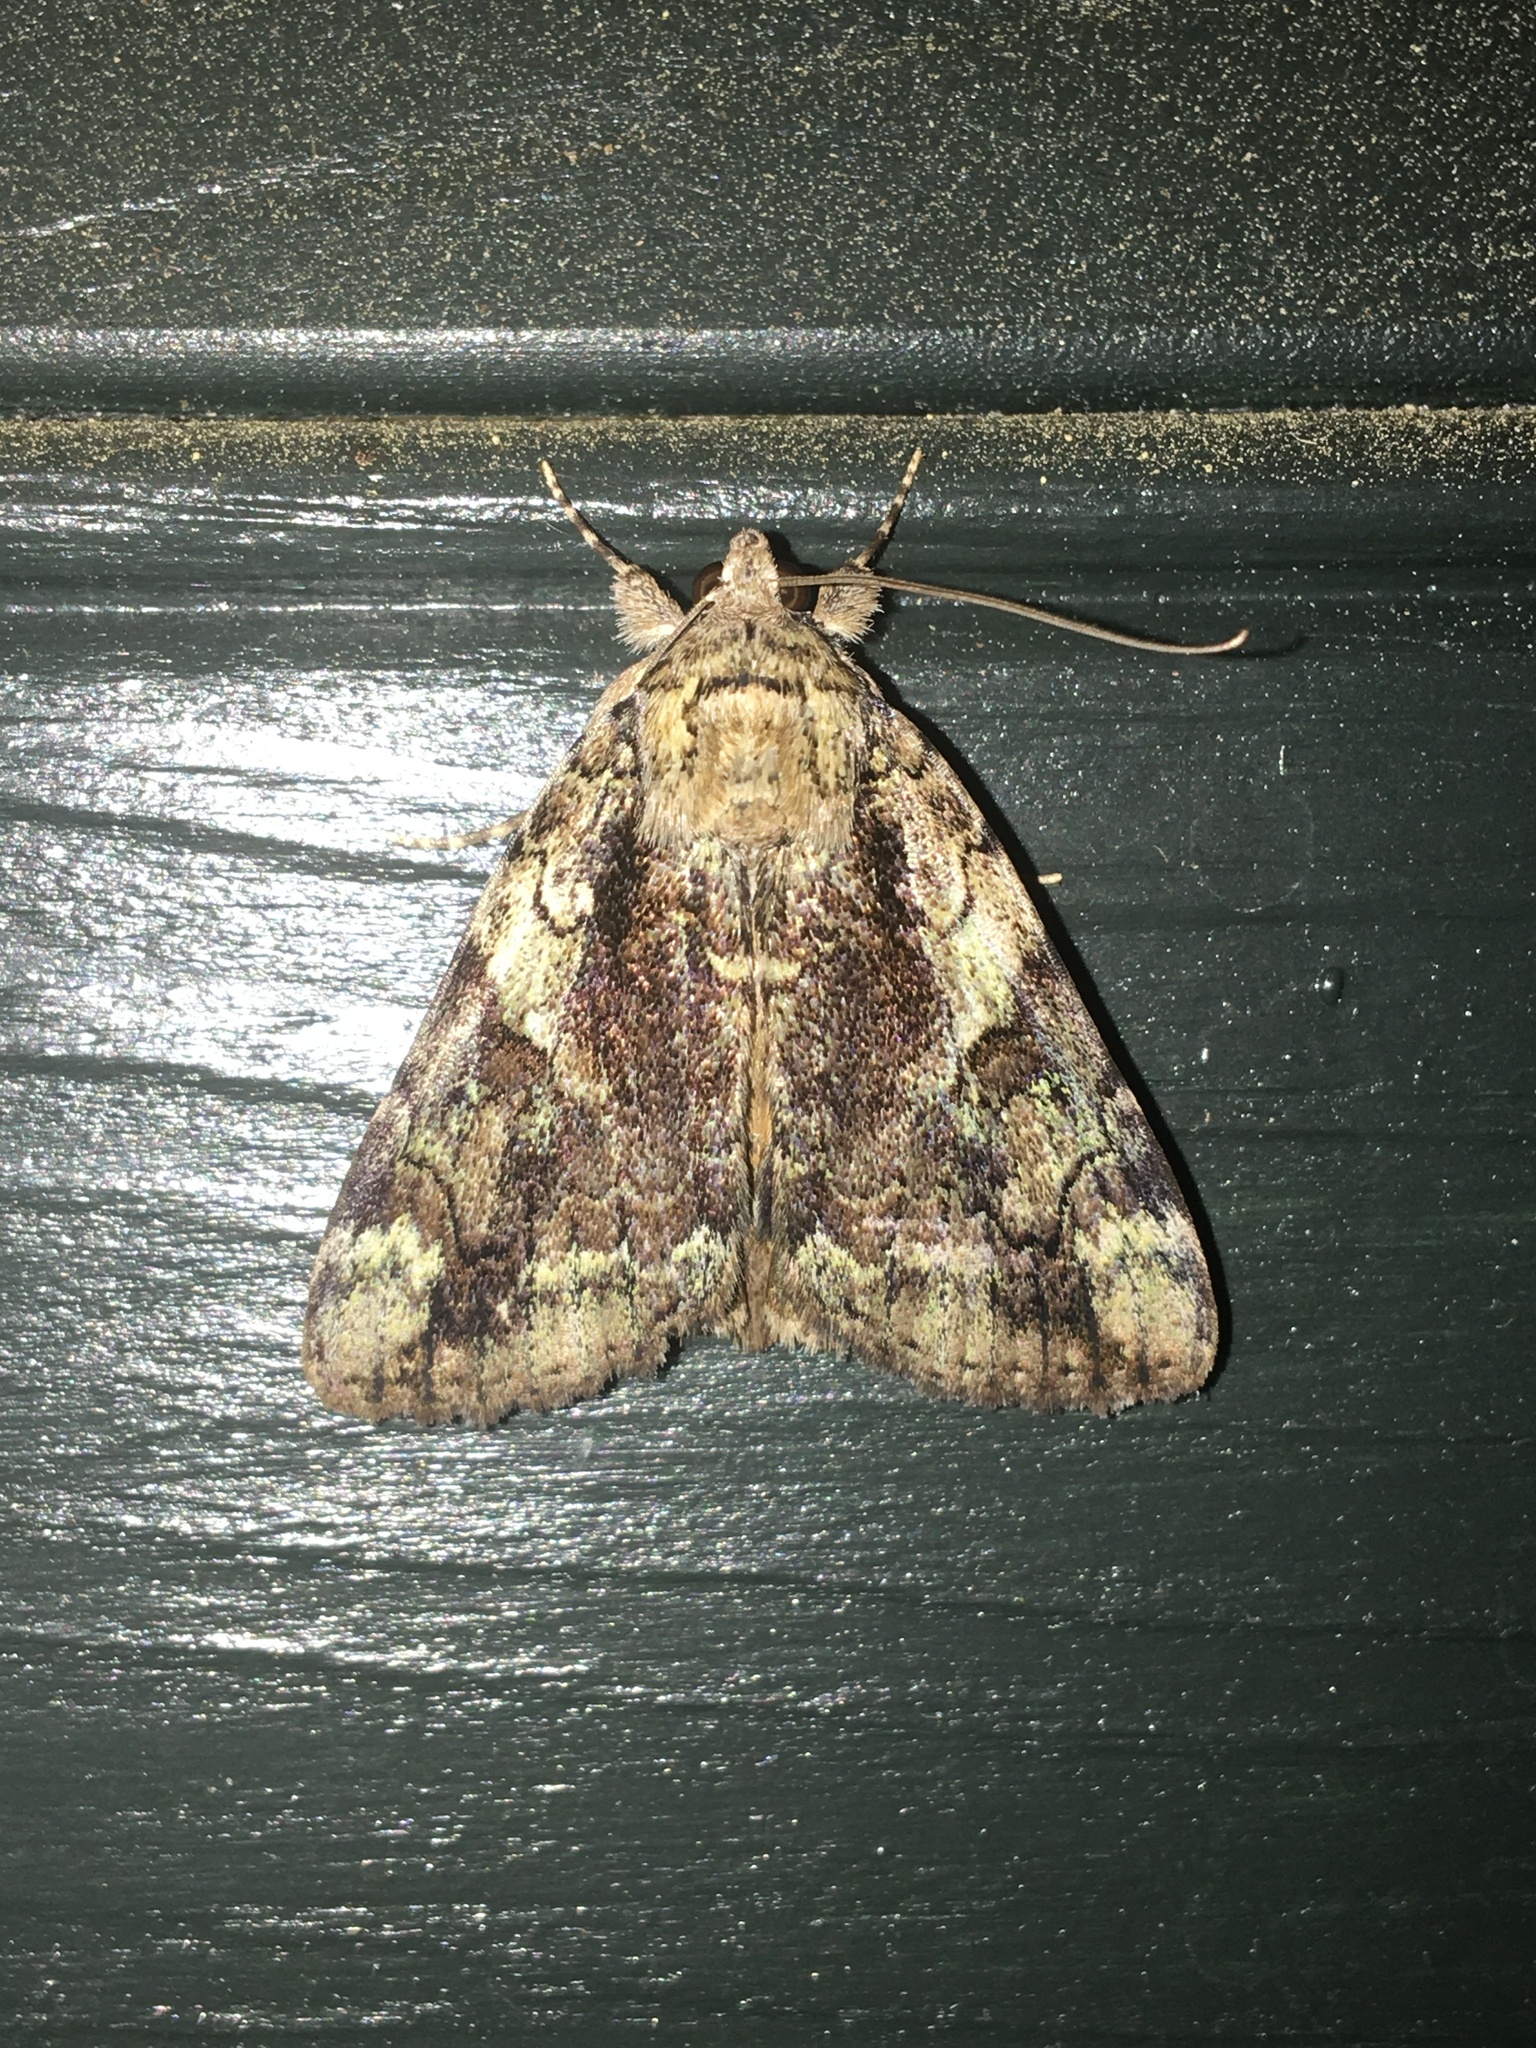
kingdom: Animalia
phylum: Arthropoda
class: Insecta
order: Lepidoptera
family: Erebidae
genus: Catocala
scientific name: Catocala micronympha
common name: Little nymph underwing
